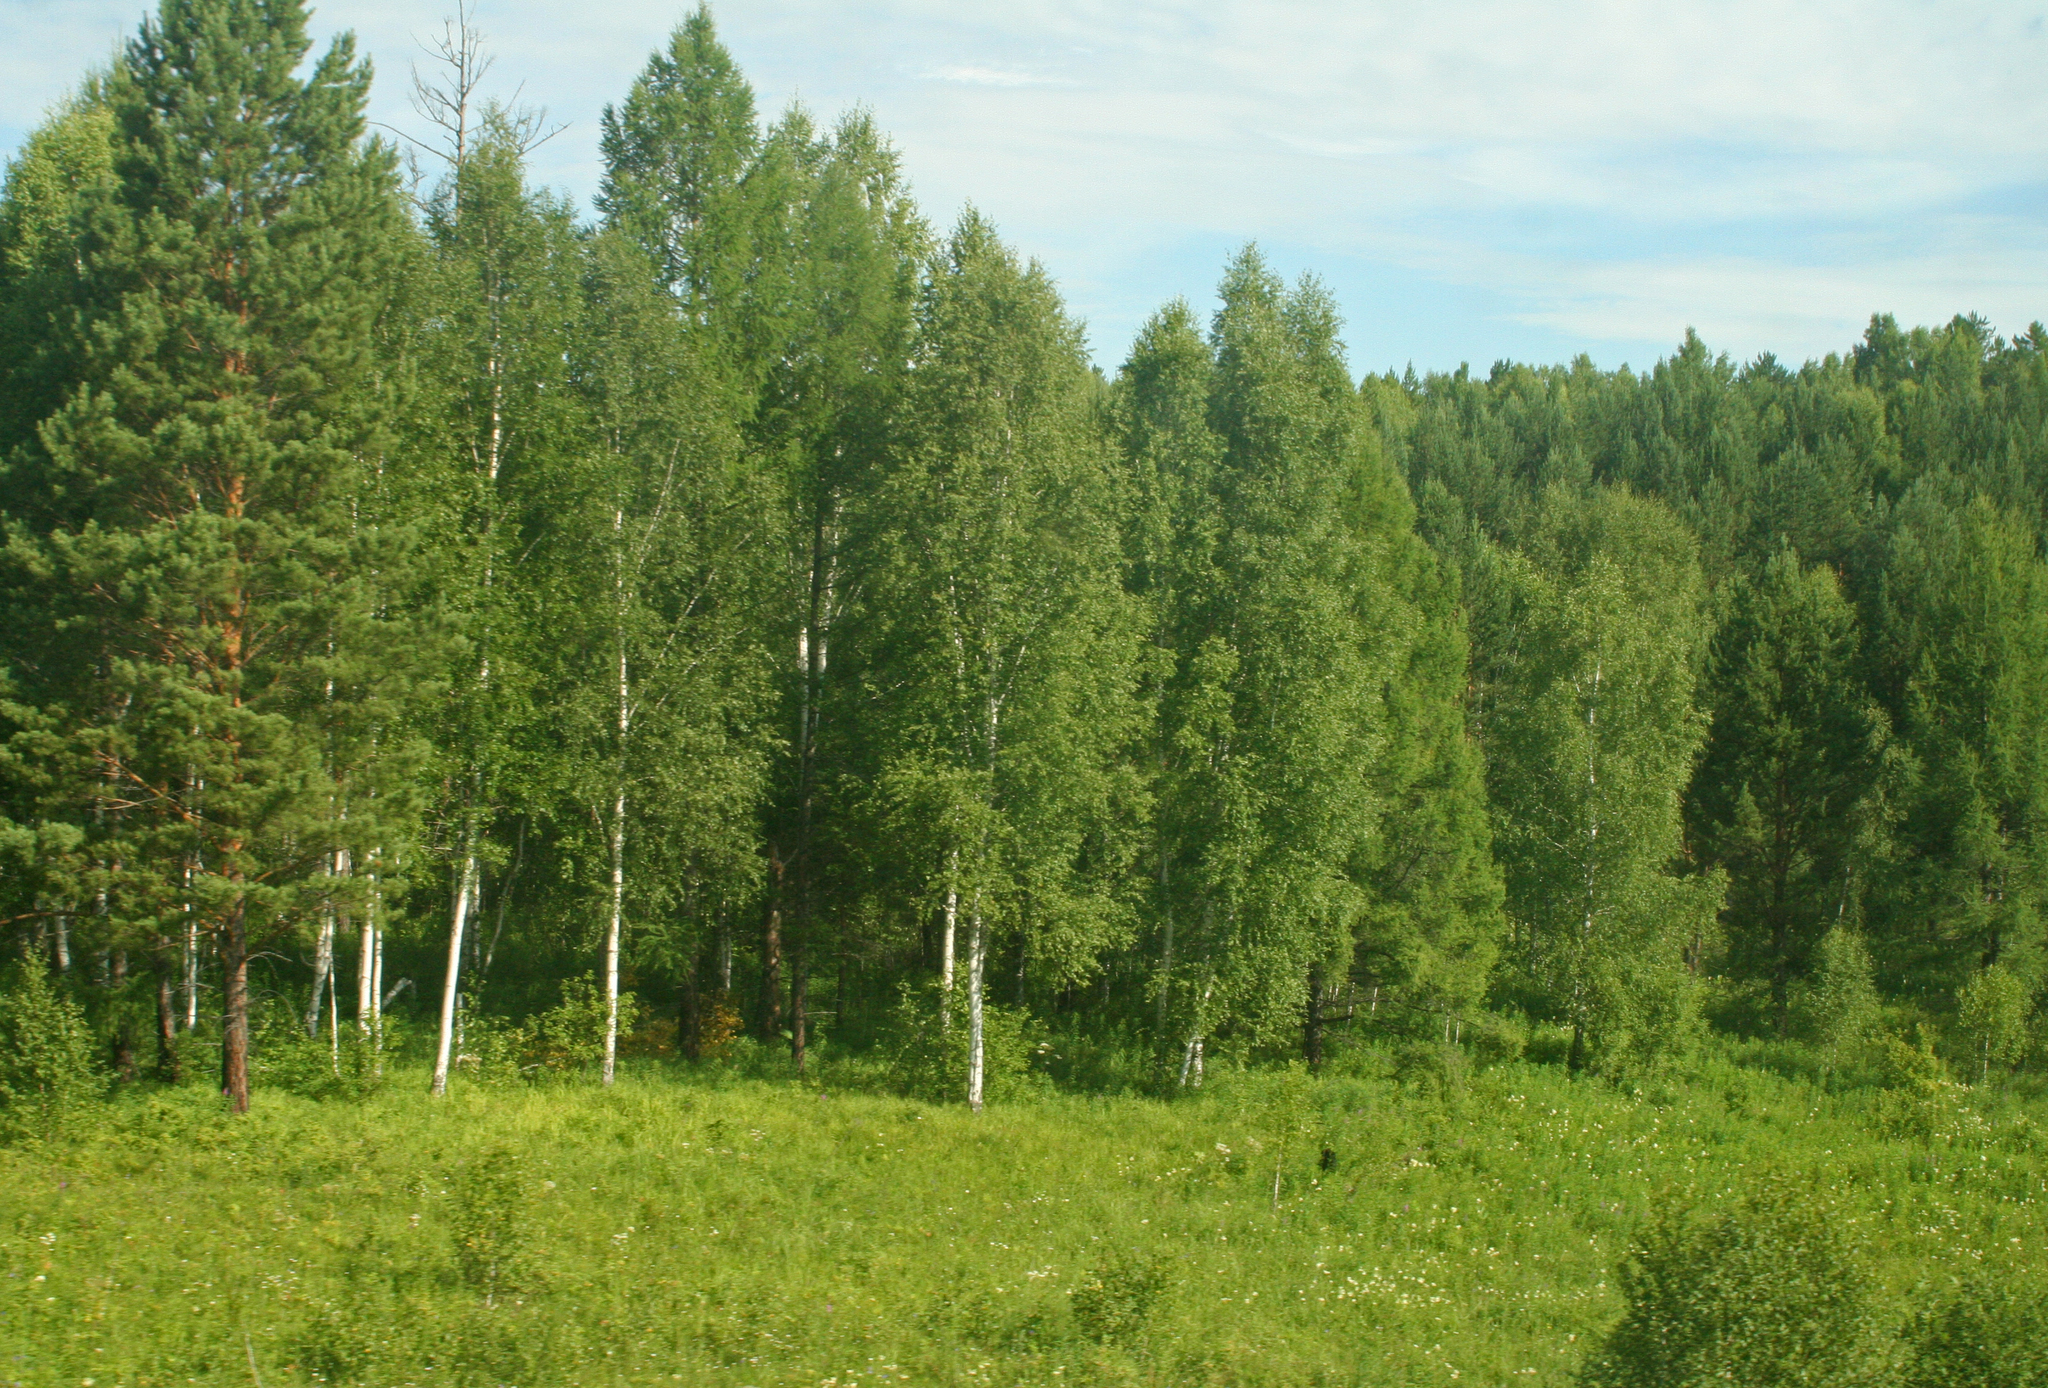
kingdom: Plantae
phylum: Tracheophyta
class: Magnoliopsida
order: Fagales
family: Betulaceae
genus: Betula
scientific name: Betula pendula
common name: Silver birch
